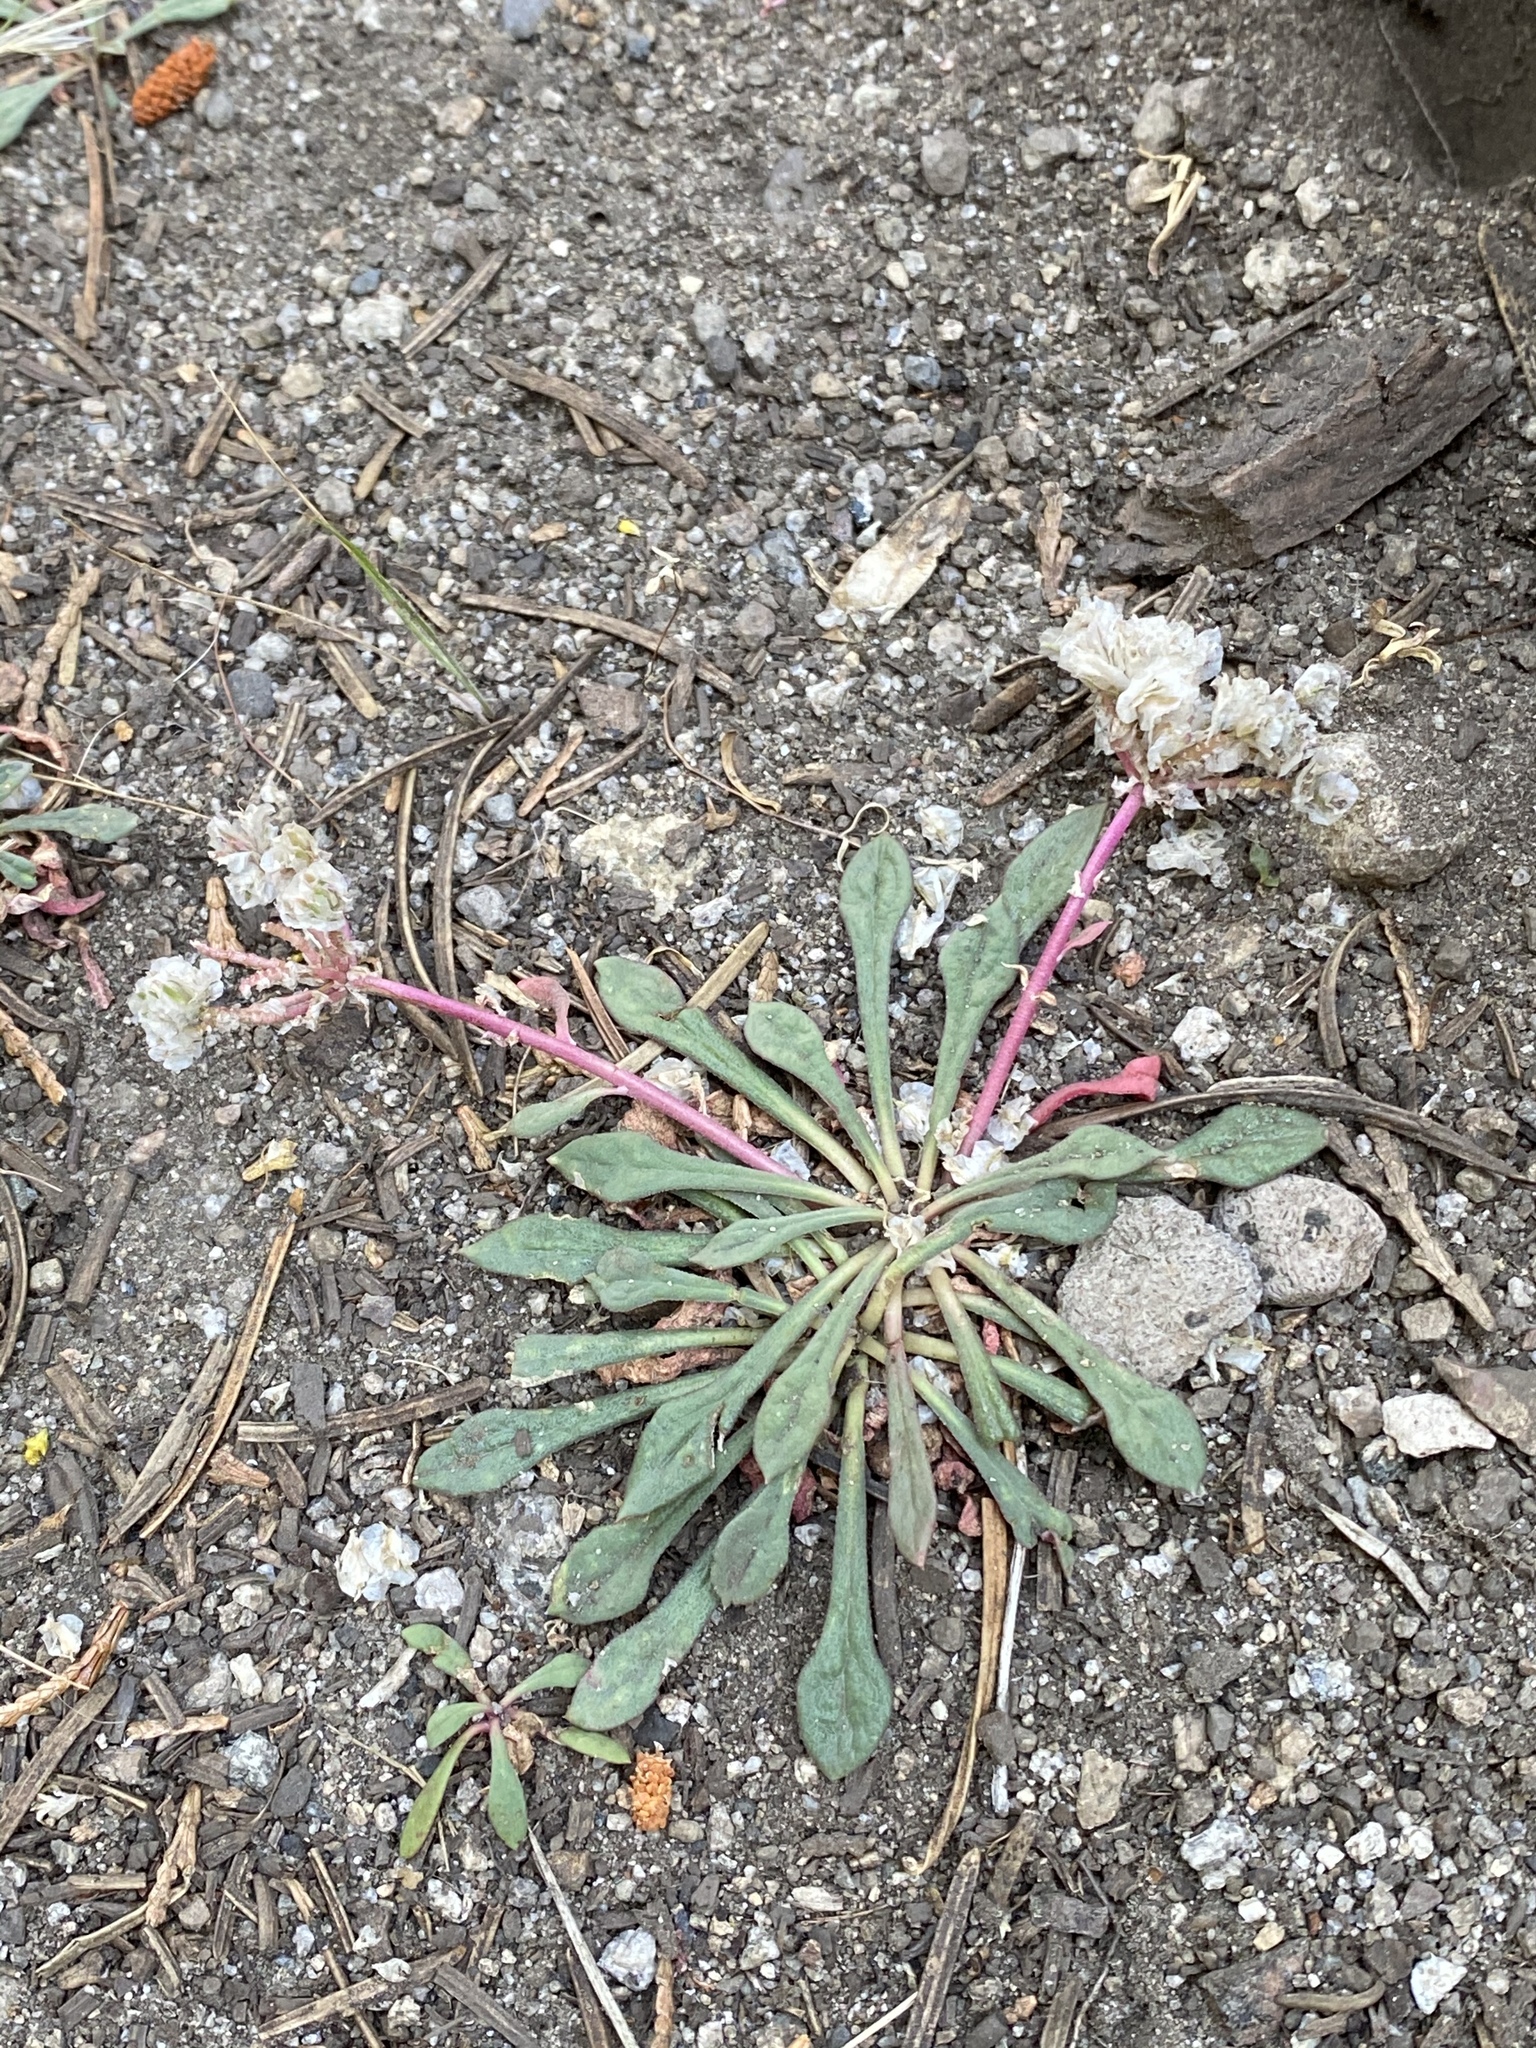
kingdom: Plantae
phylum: Tracheophyta
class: Magnoliopsida
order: Caryophyllales
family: Montiaceae
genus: Calyptridium
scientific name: Calyptridium monospermum
